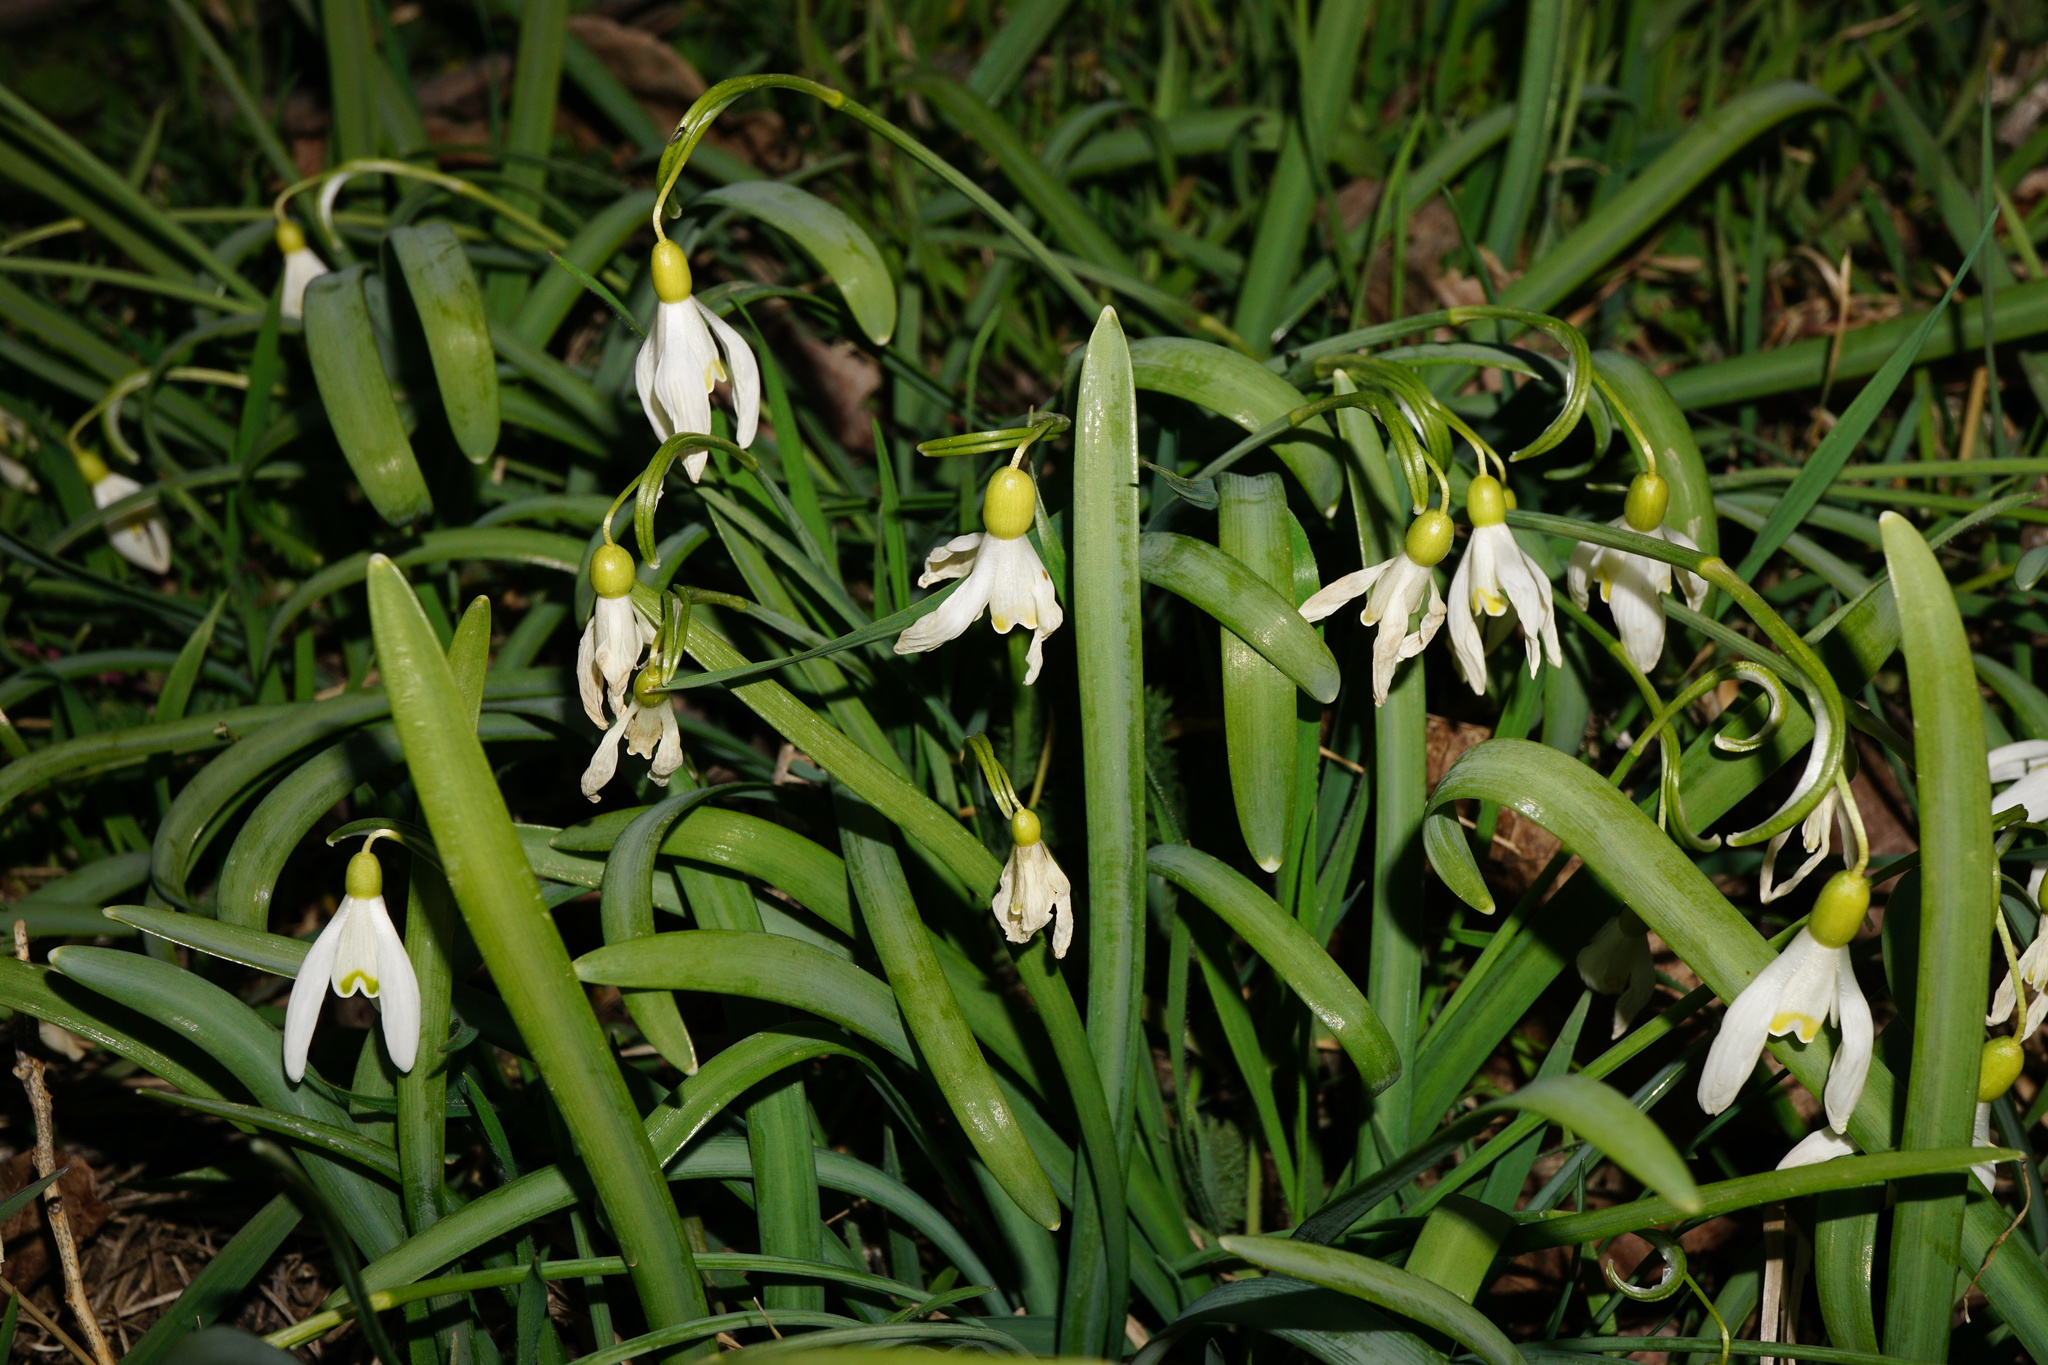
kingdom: Plantae
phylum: Tracheophyta
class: Liliopsida
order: Asparagales
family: Amaryllidaceae
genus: Galanthus
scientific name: Galanthus nivalis
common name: Snowdrop
